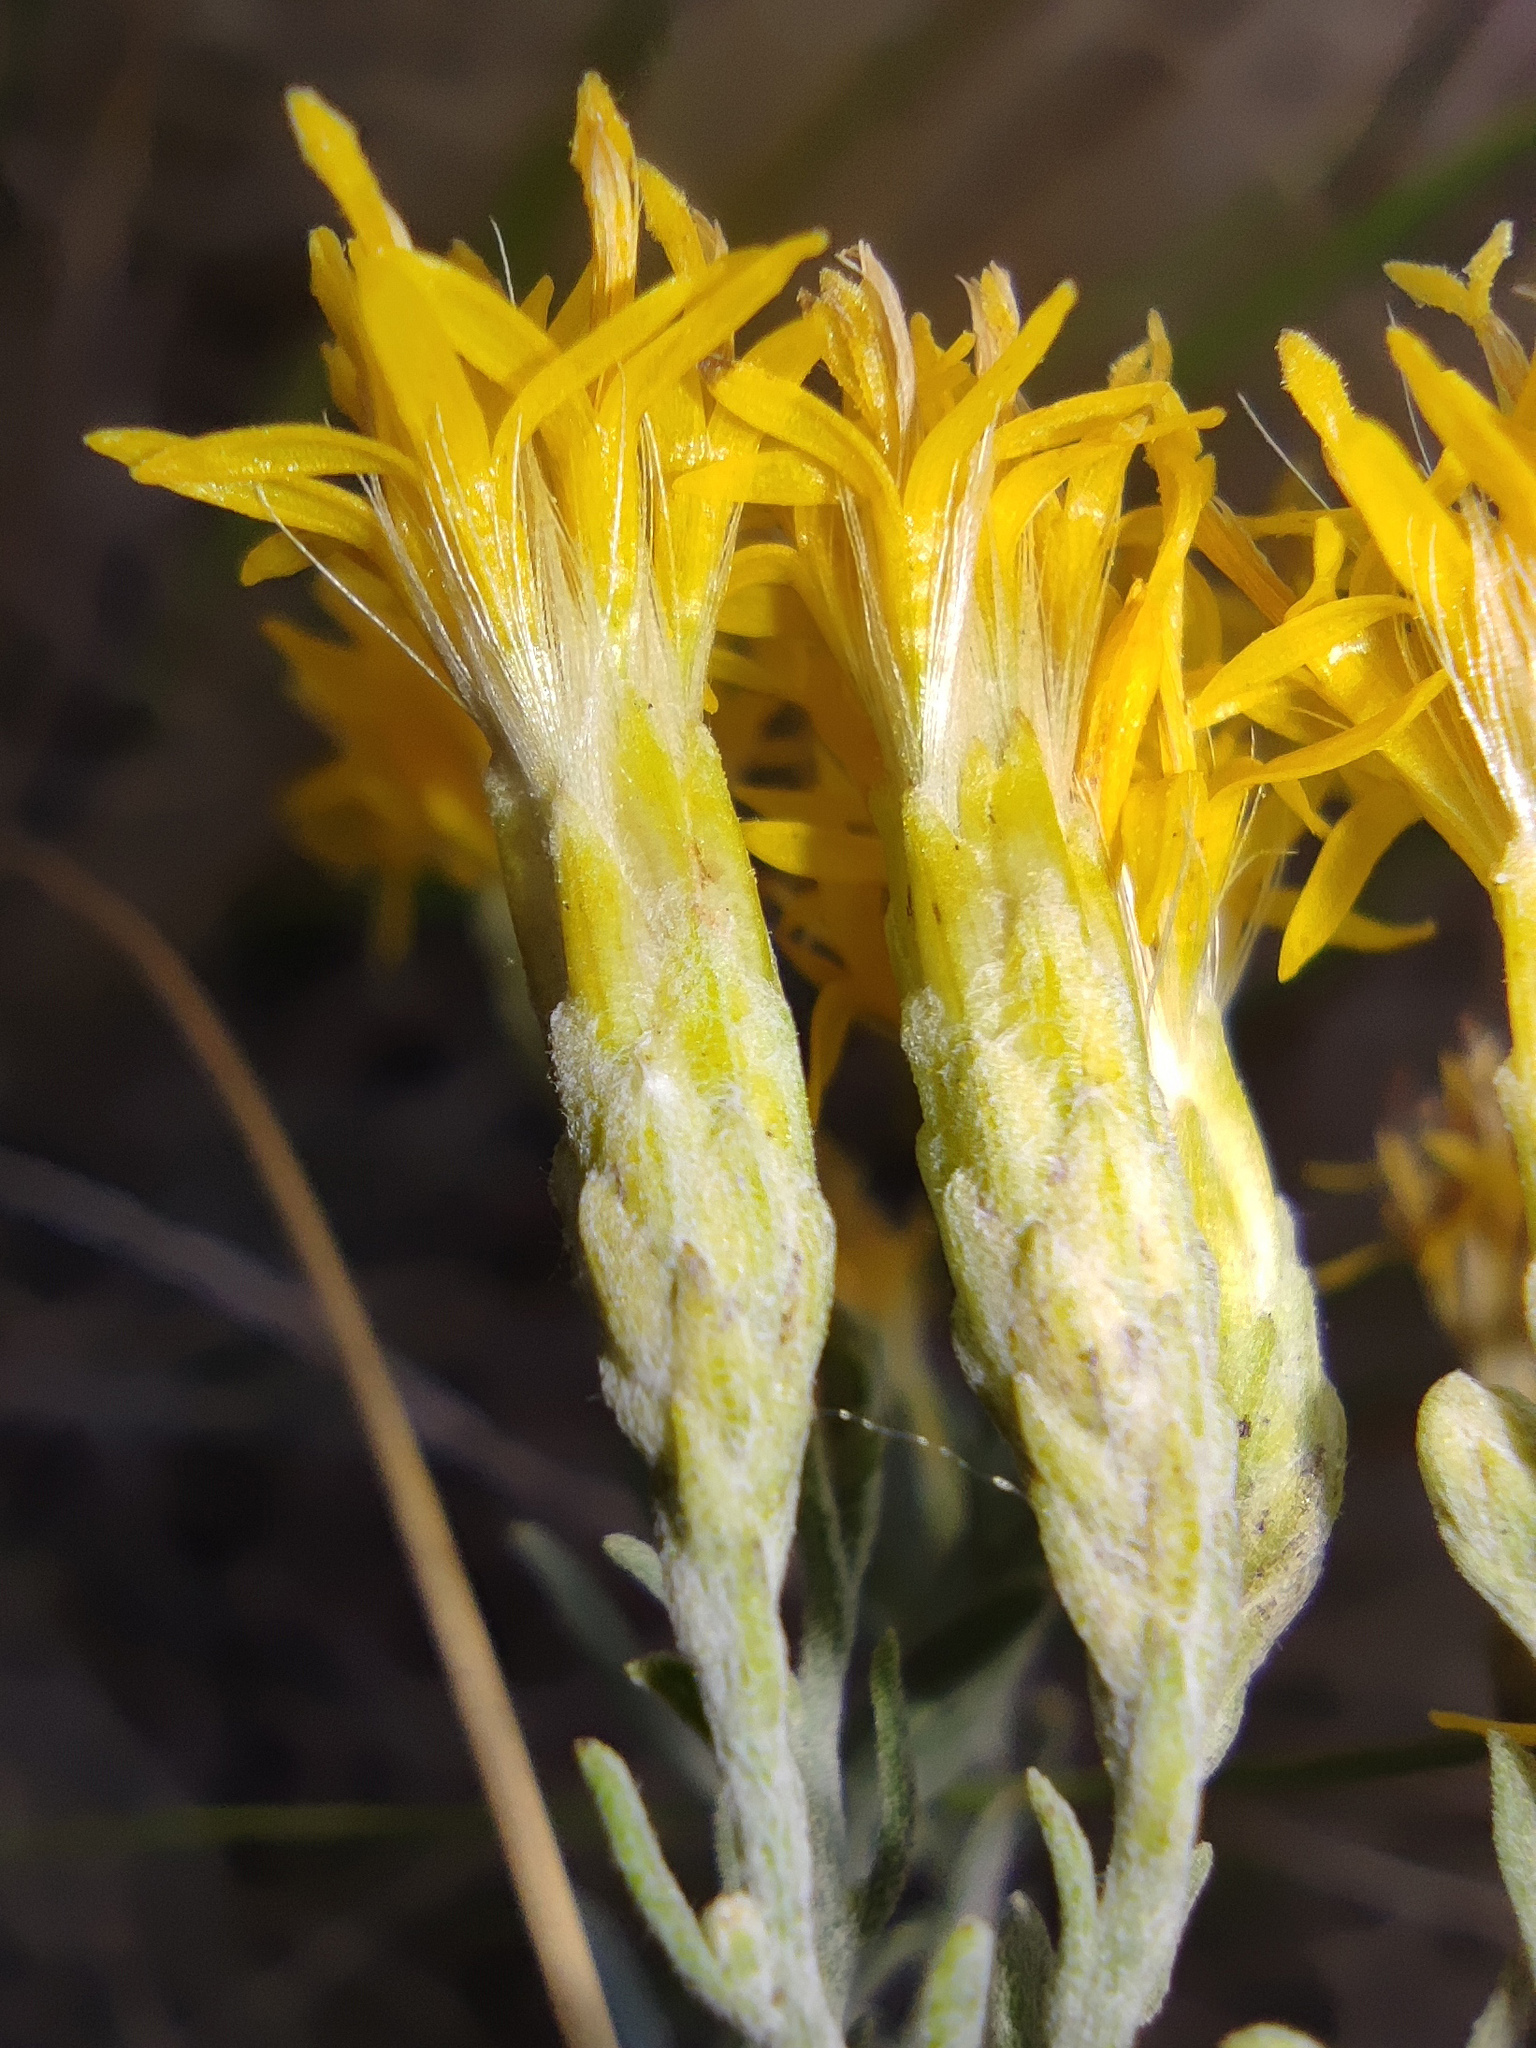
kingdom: Plantae
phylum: Tracheophyta
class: Magnoliopsida
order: Asterales
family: Asteraceae
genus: Galatella
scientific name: Galatella villosa
